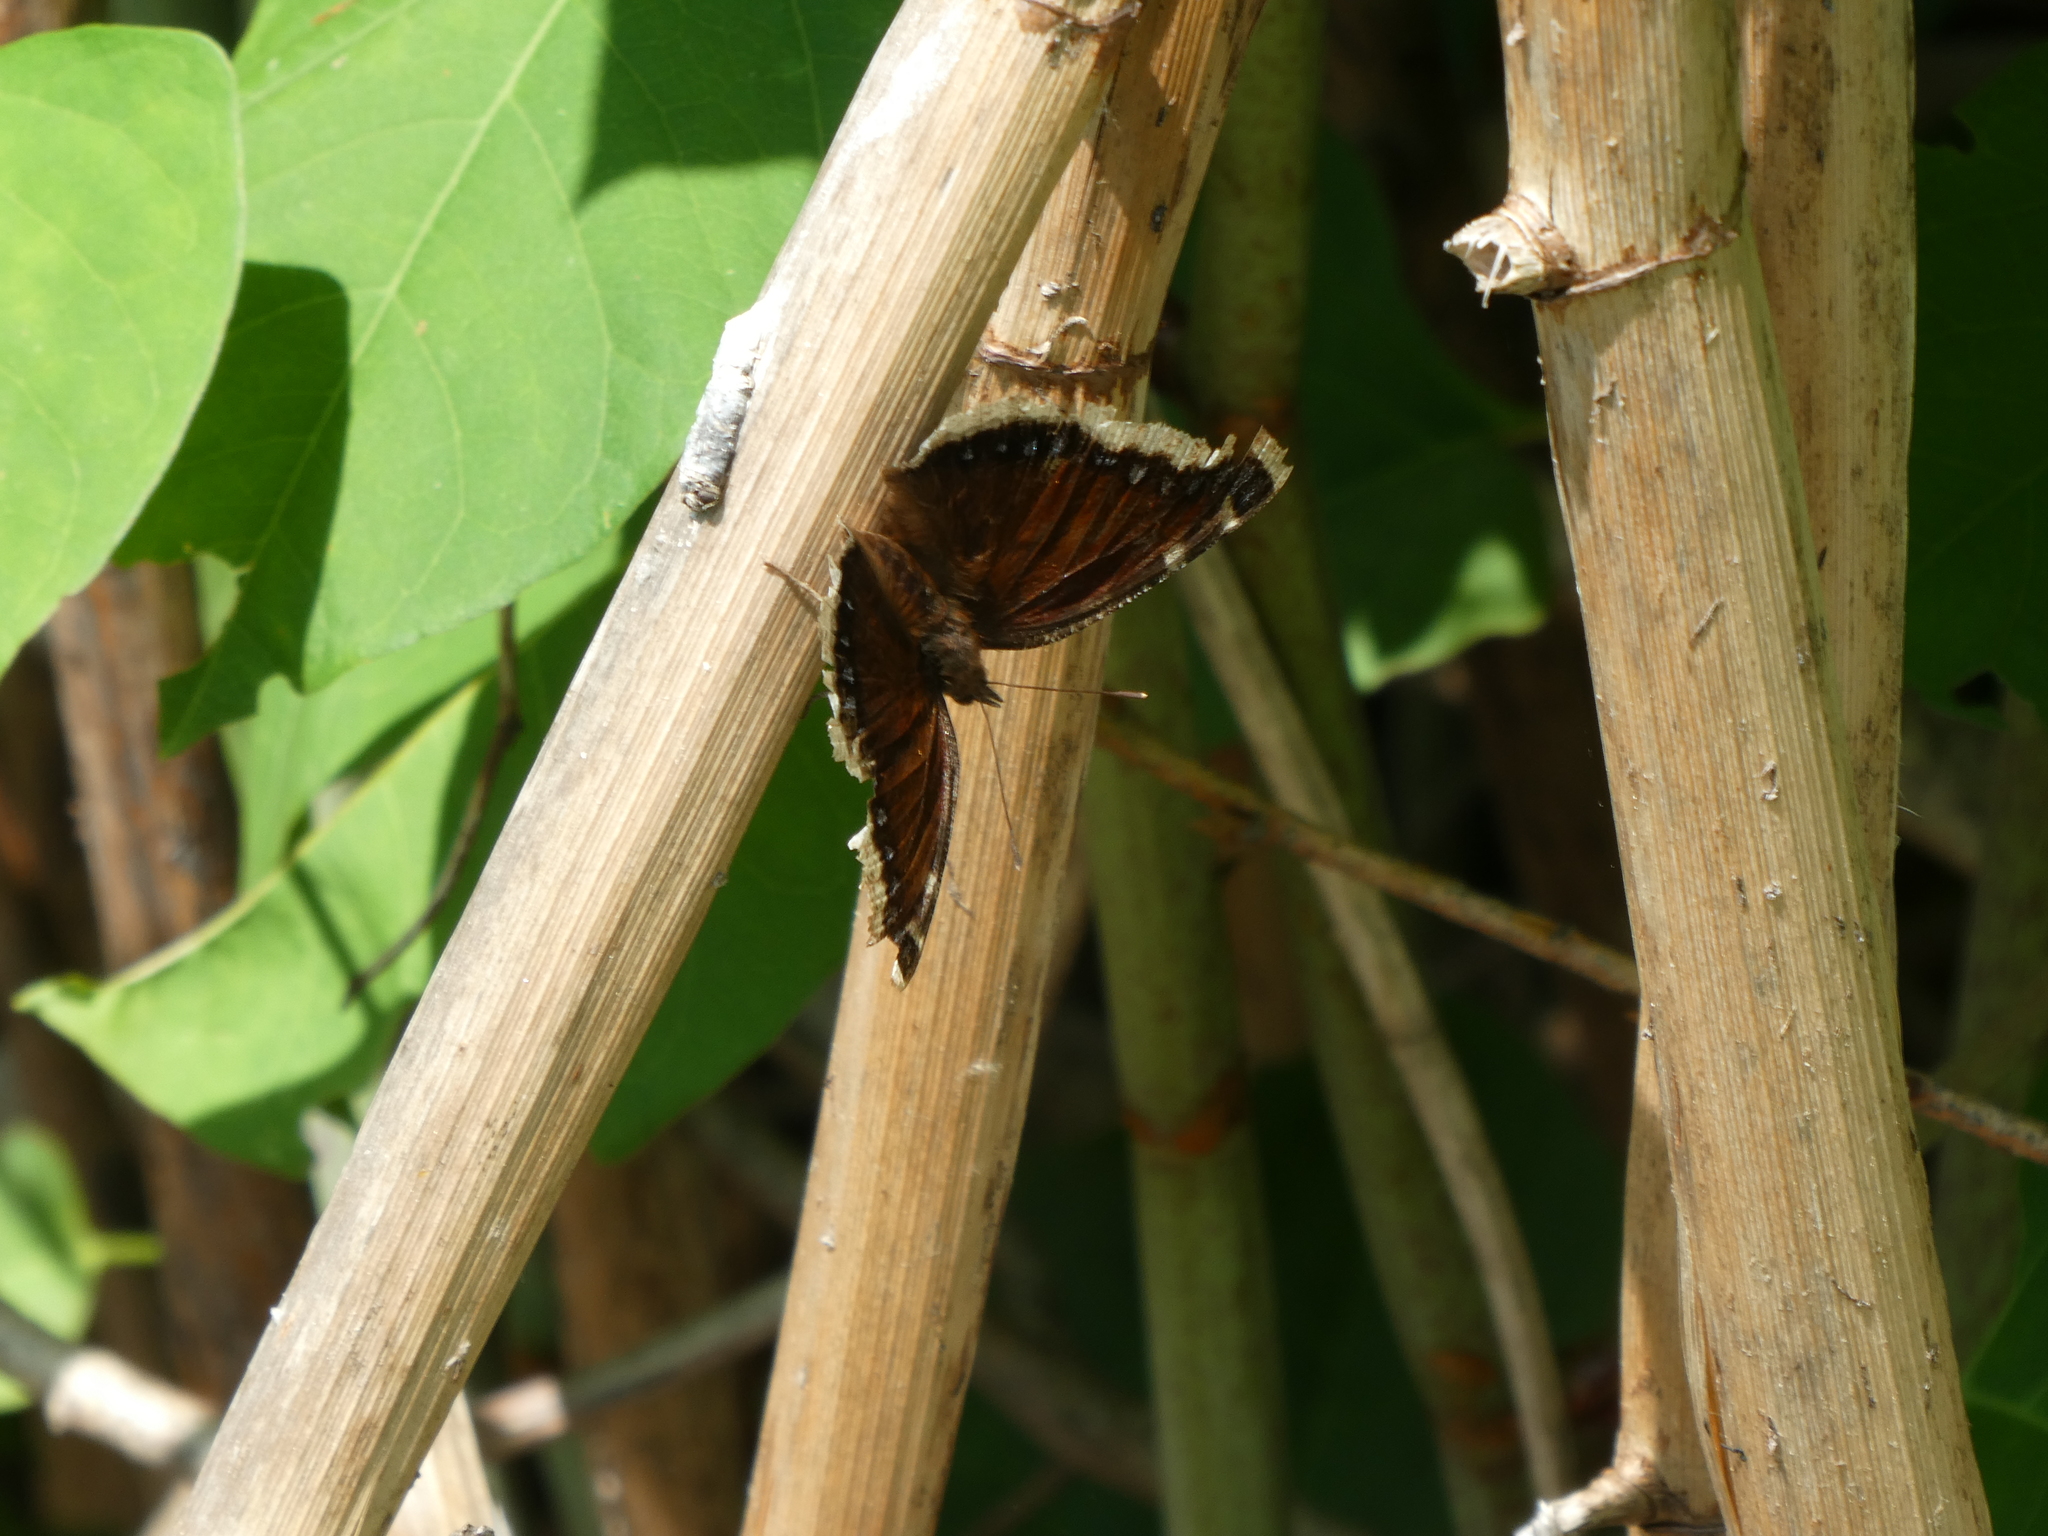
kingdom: Animalia
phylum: Arthropoda
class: Insecta
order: Lepidoptera
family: Nymphalidae
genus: Nymphalis
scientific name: Nymphalis antiopa
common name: Camberwell beauty
